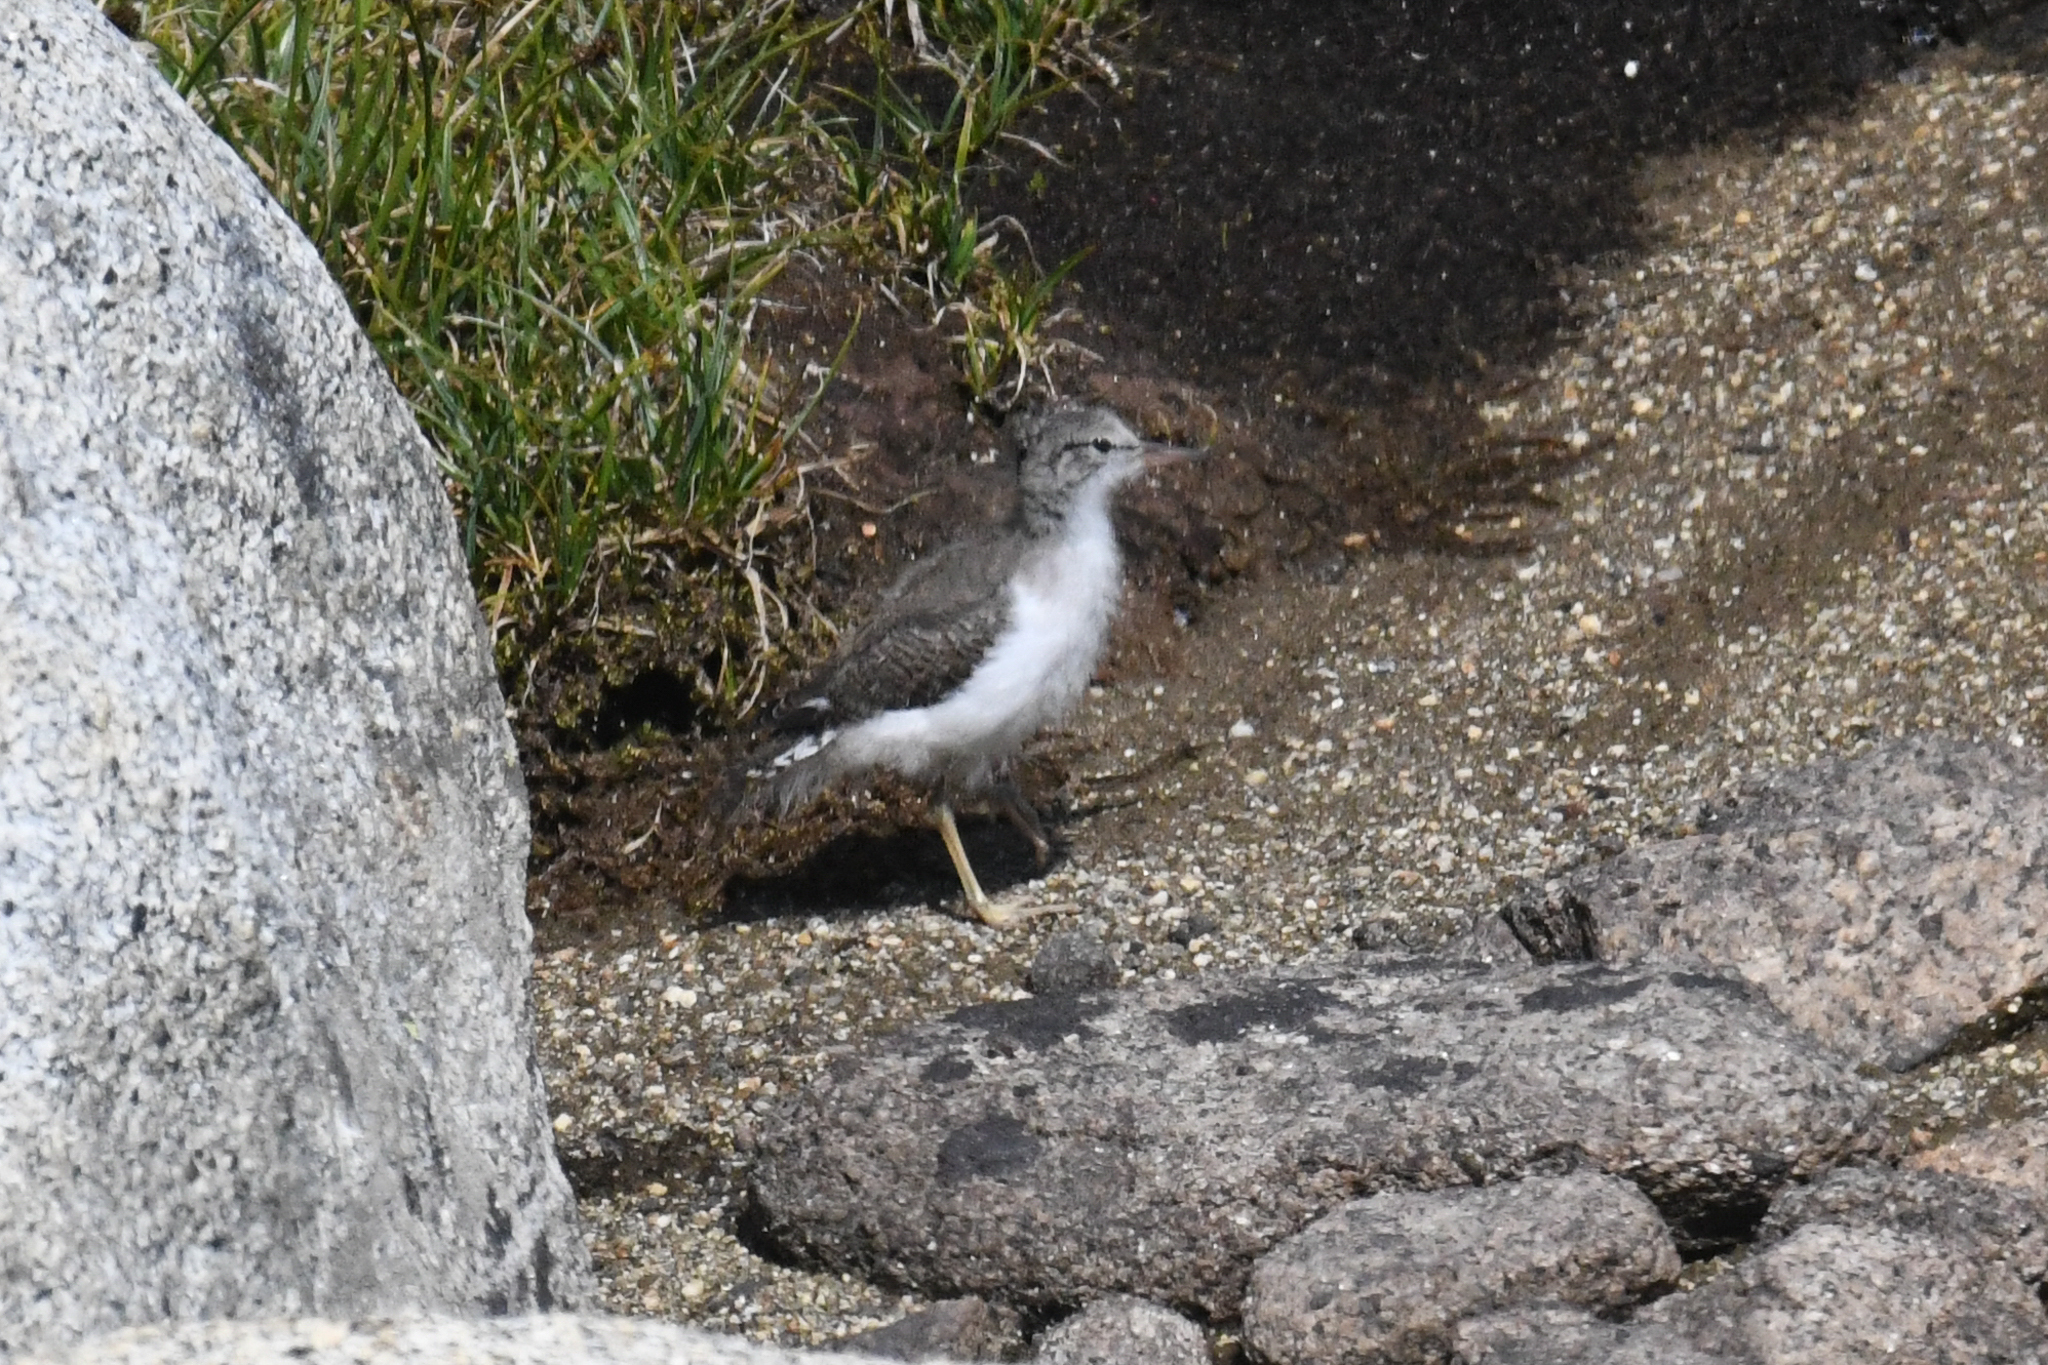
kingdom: Animalia
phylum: Chordata
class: Aves
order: Charadriiformes
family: Scolopacidae
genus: Actitis
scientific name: Actitis macularius
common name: Spotted sandpiper
